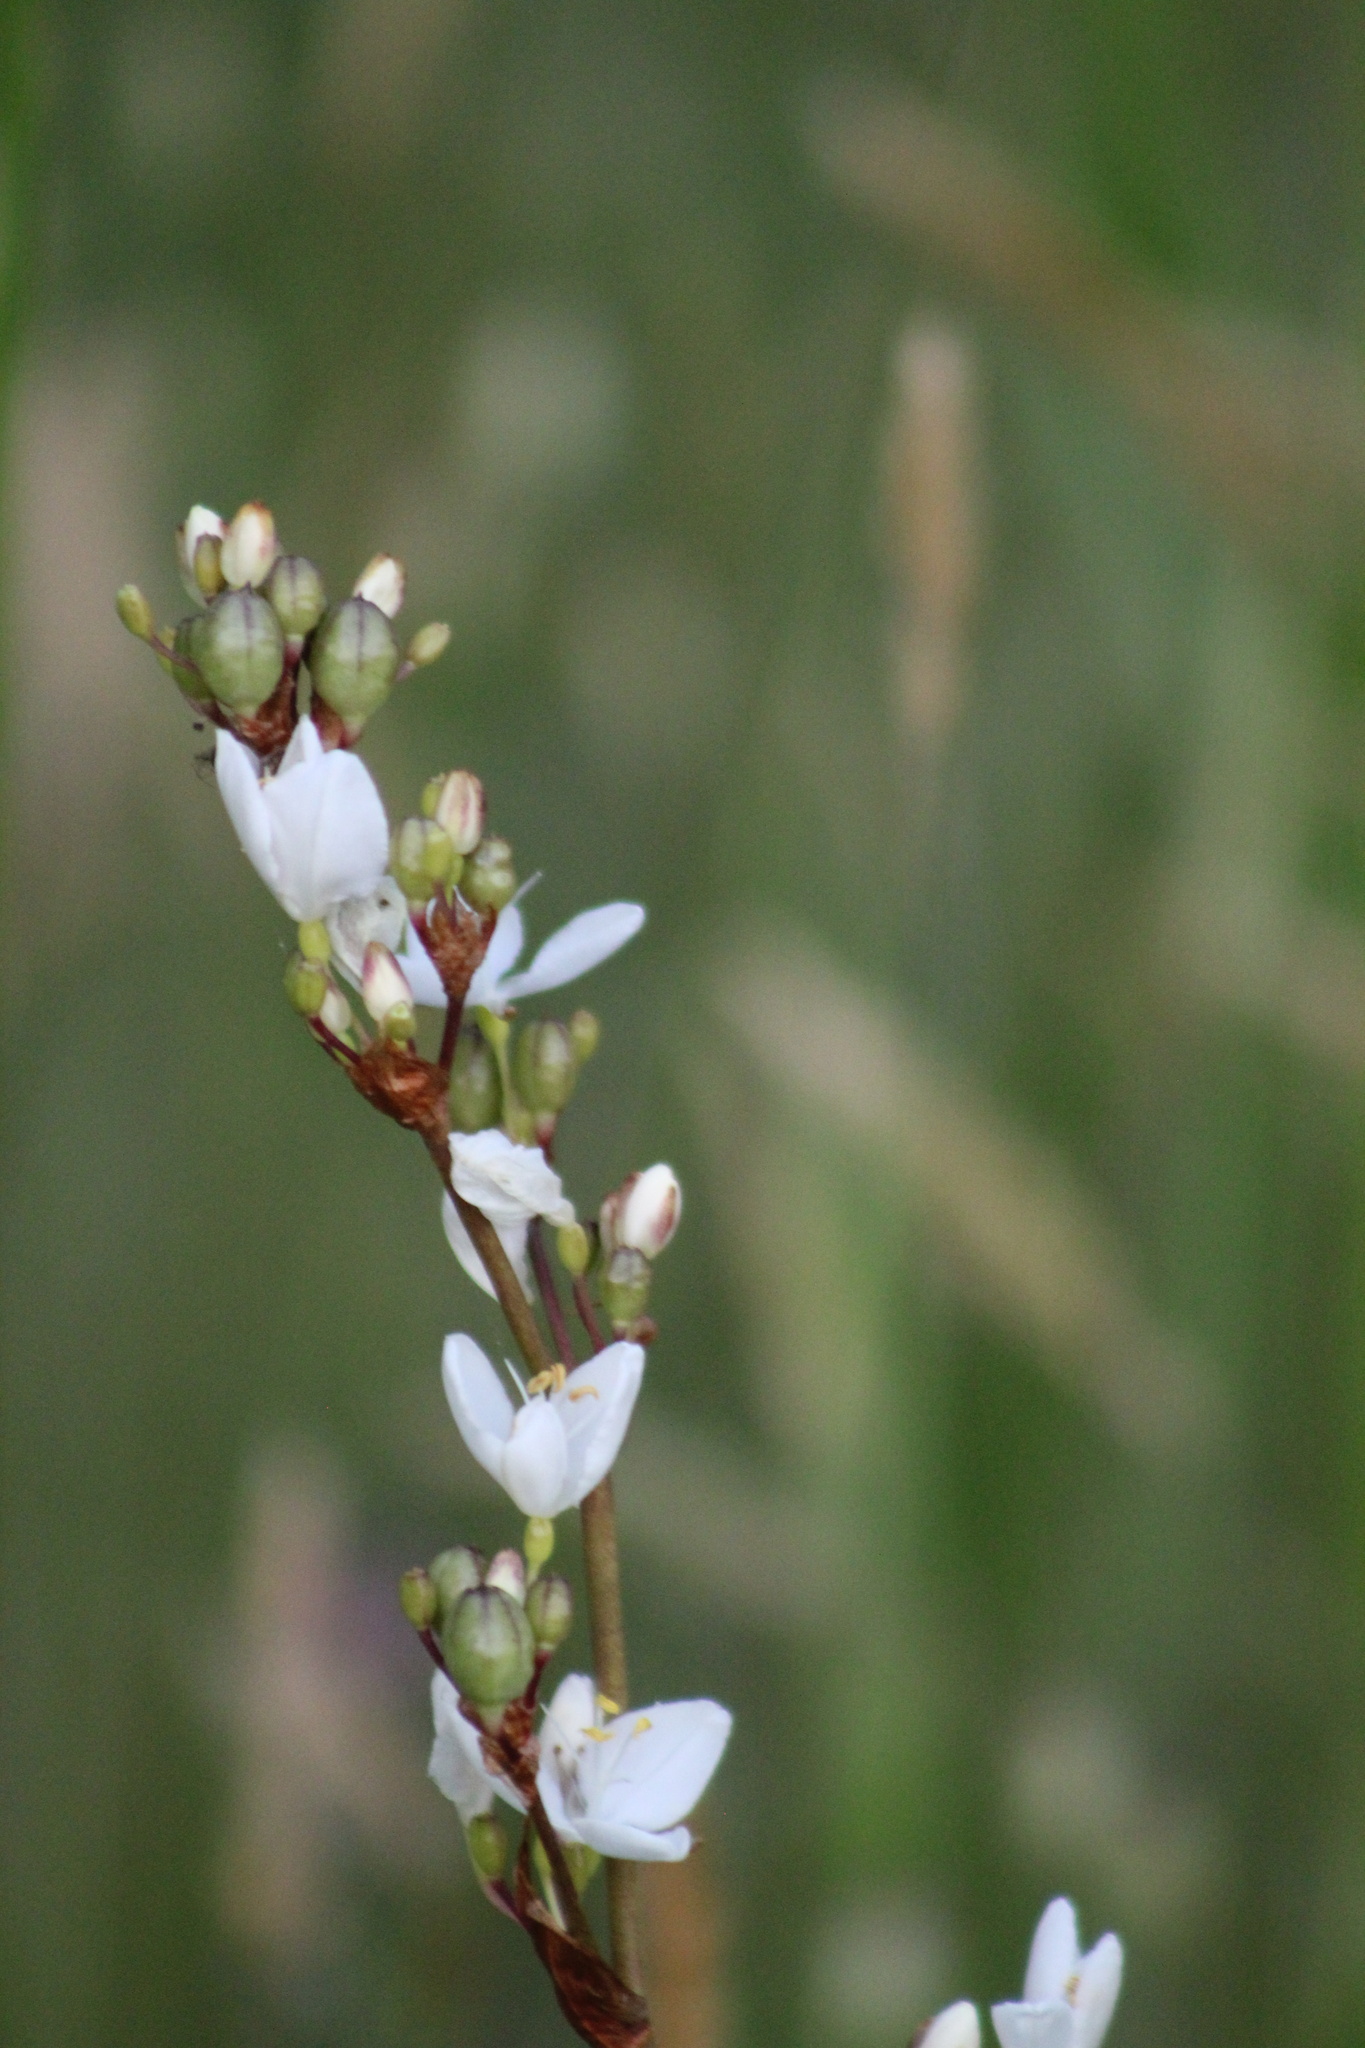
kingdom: Plantae
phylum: Tracheophyta
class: Liliopsida
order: Asparagales
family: Iridaceae
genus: Libertia
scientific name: Libertia chilensis
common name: Satin flower
